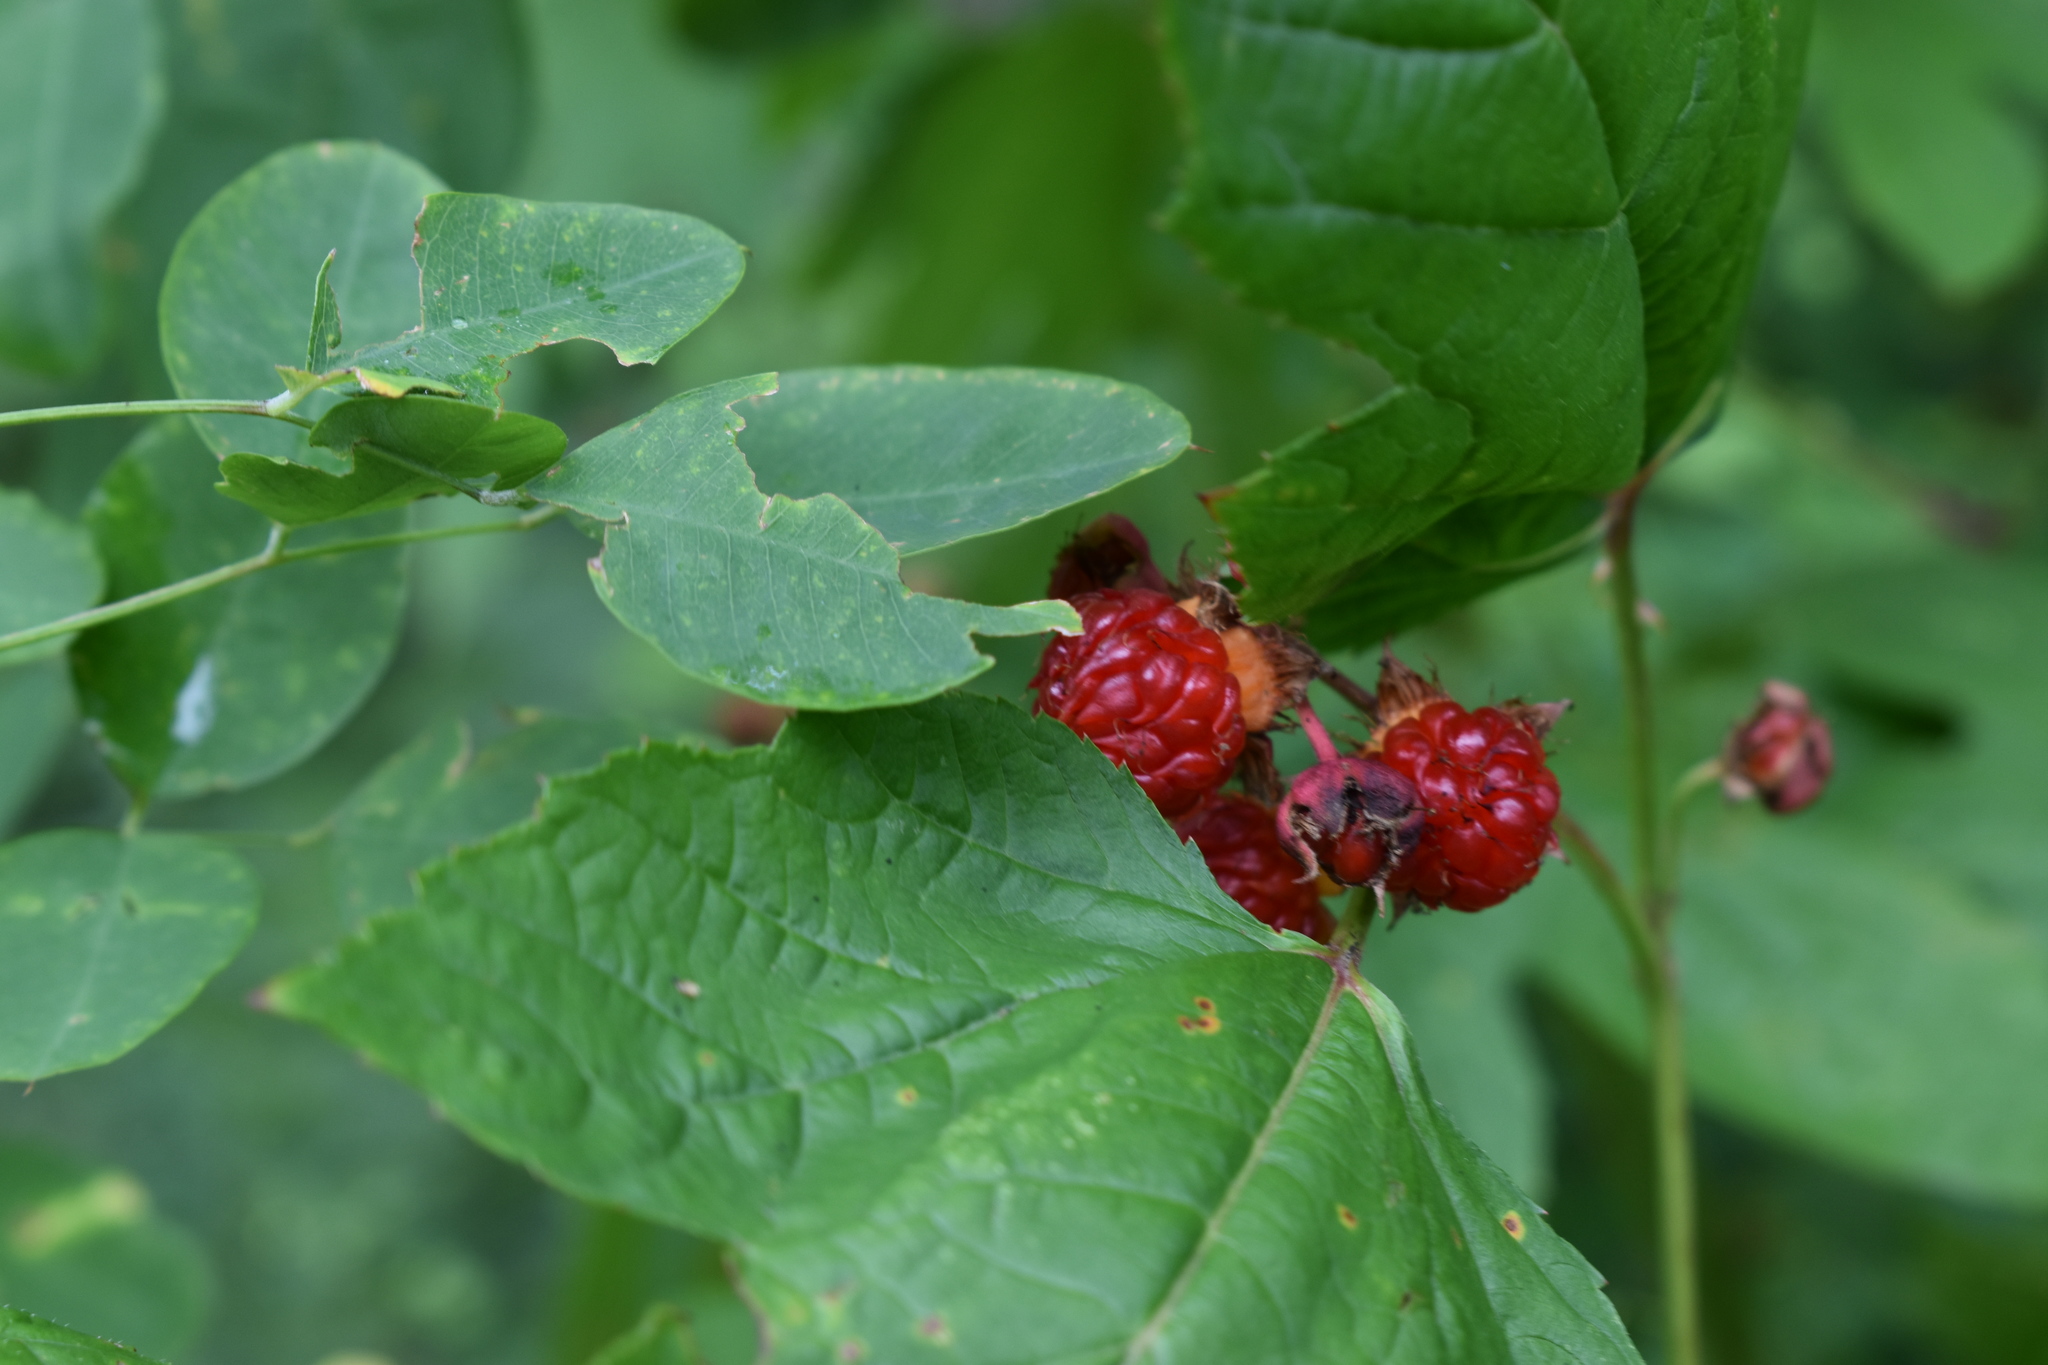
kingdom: Plantae
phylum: Tracheophyta
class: Magnoliopsida
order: Rosales
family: Rosaceae
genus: Rubus
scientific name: Rubus crataegifolius
